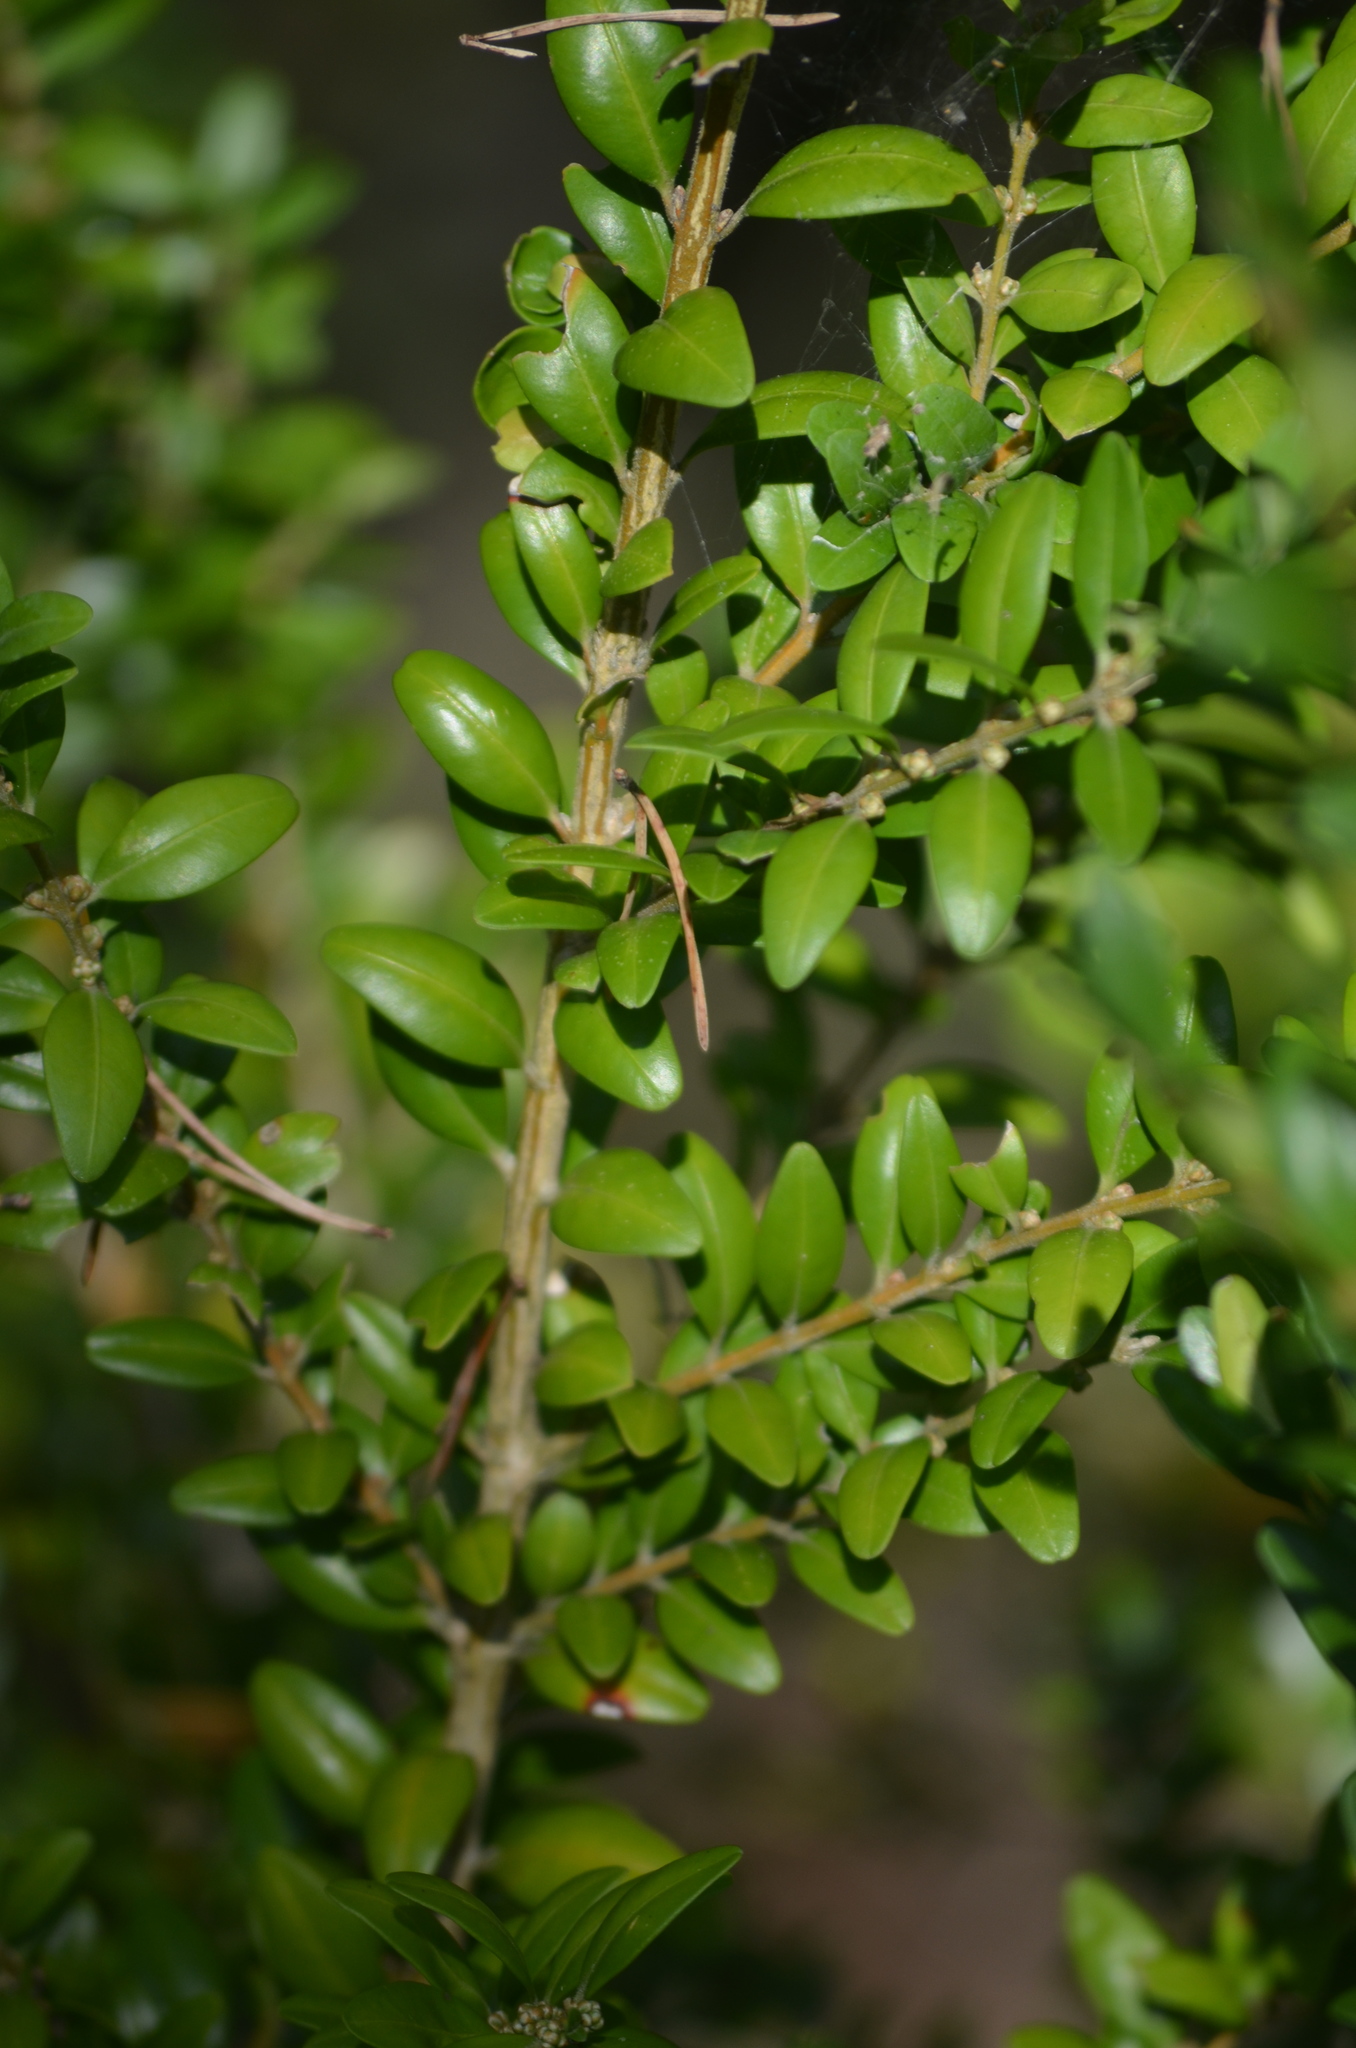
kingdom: Plantae
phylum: Tracheophyta
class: Magnoliopsida
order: Buxales
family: Buxaceae
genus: Buxus
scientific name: Buxus sempervirens
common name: Box
